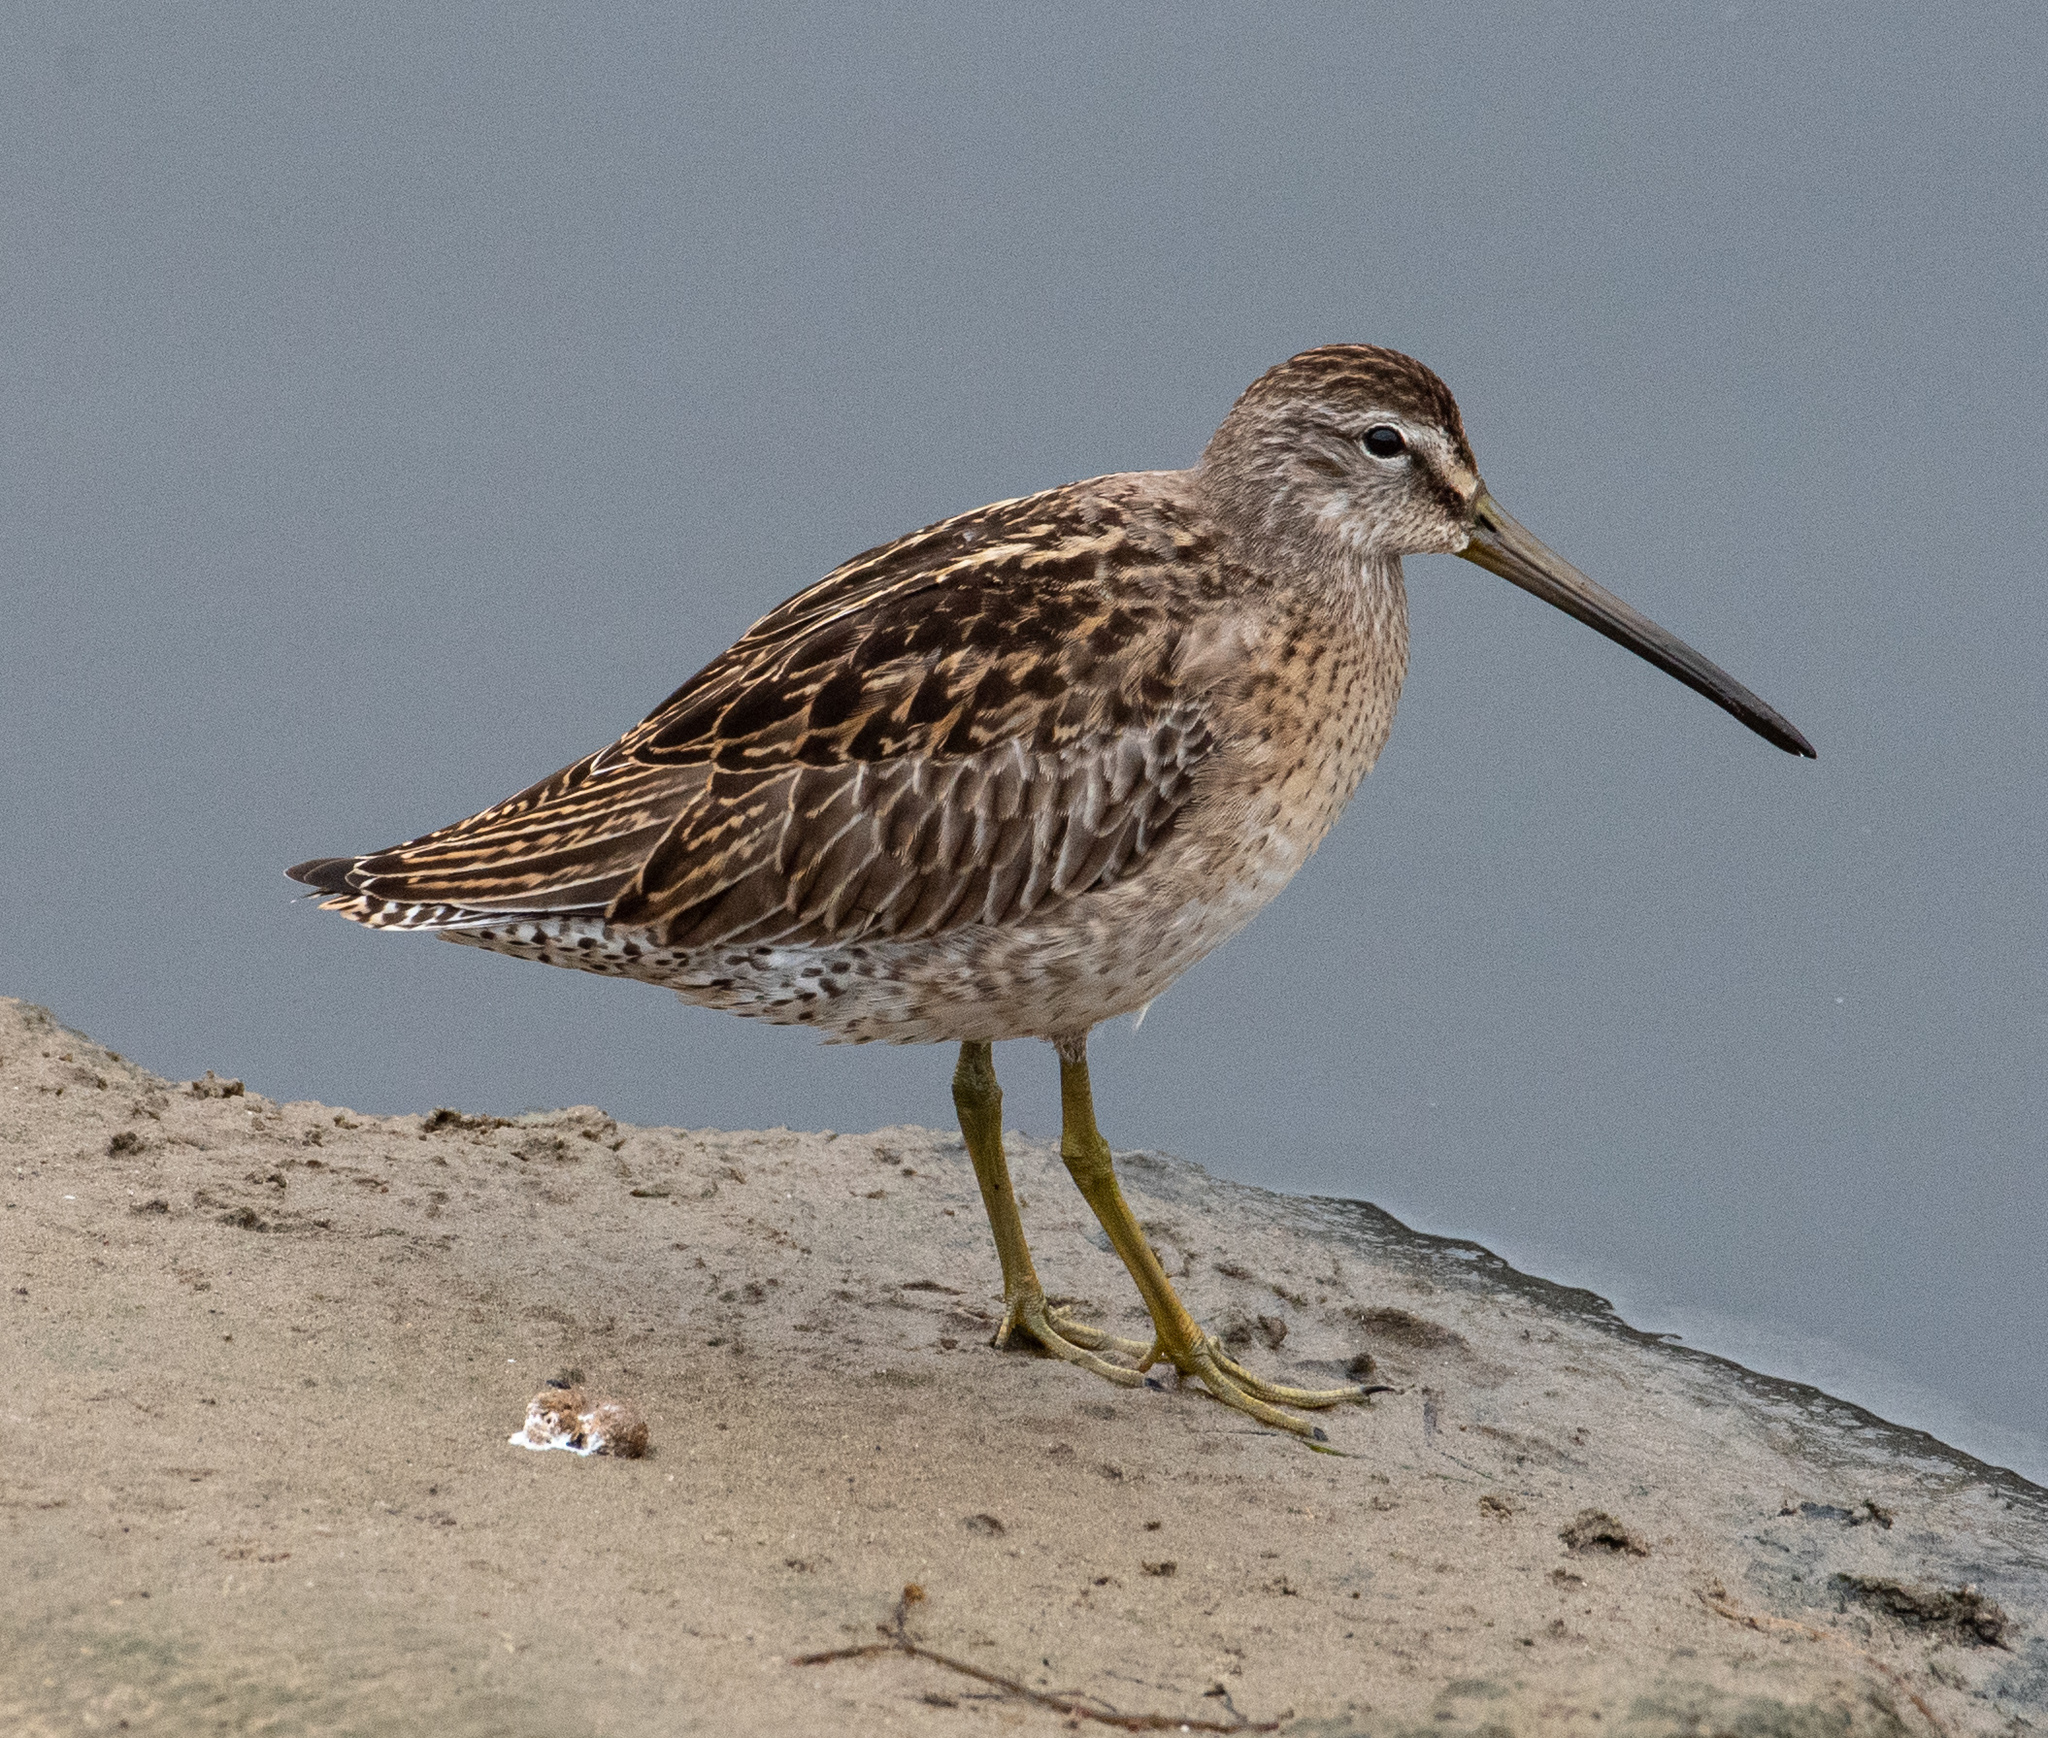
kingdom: Animalia
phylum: Chordata
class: Aves
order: Charadriiformes
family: Scolopacidae
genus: Limnodromus
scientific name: Limnodromus griseus
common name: Short-billed dowitcher
